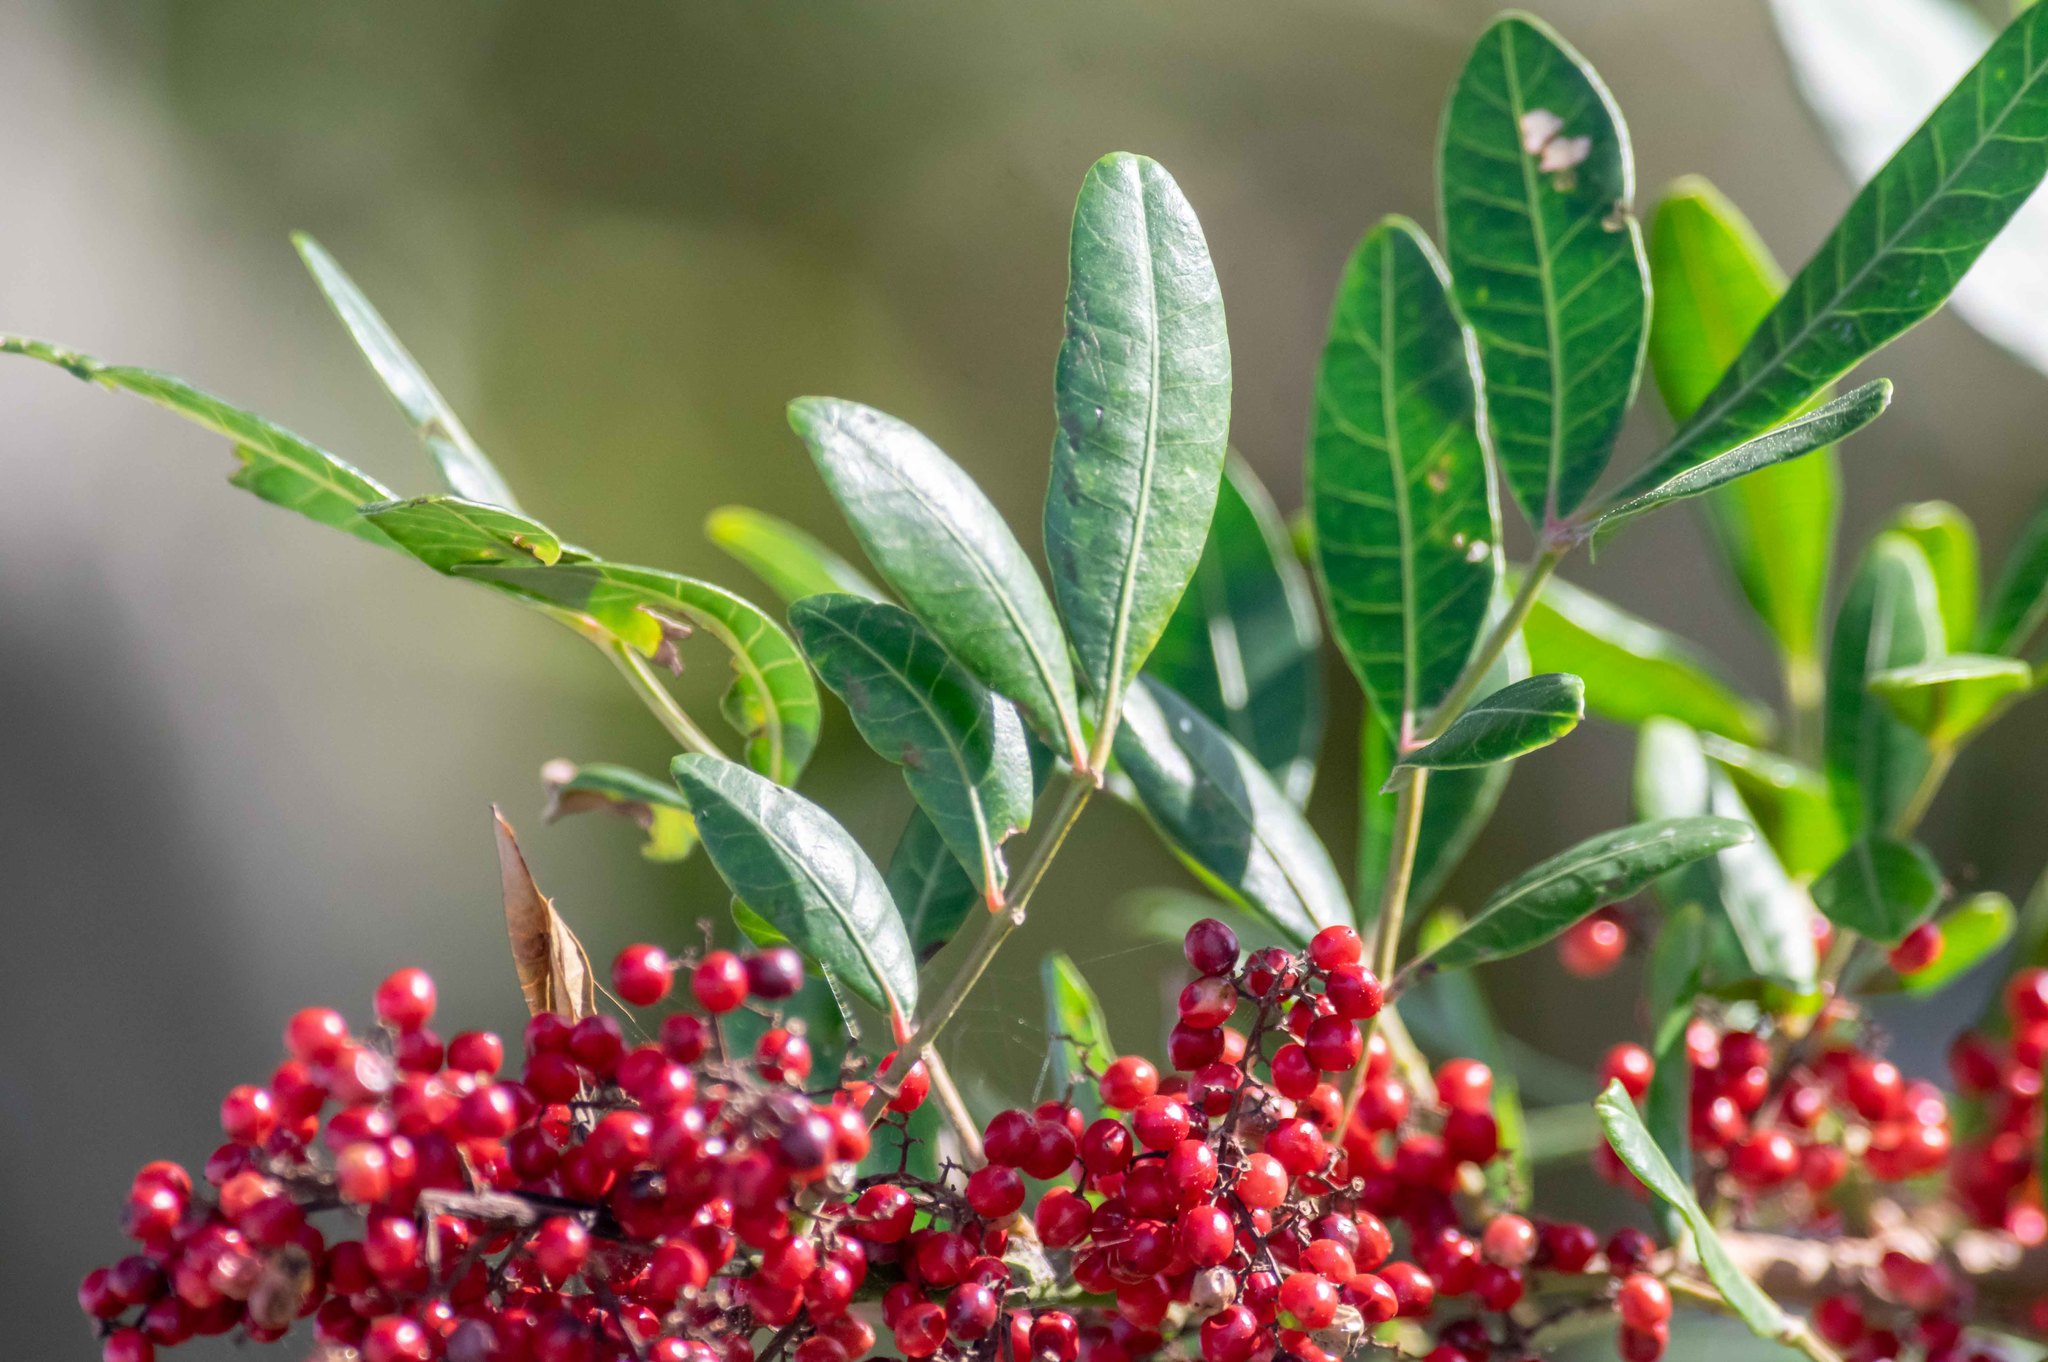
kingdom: Plantae
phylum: Tracheophyta
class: Magnoliopsida
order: Sapindales
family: Anacardiaceae
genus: Schinus
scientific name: Schinus terebinthifolia
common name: Brazilian peppertree
